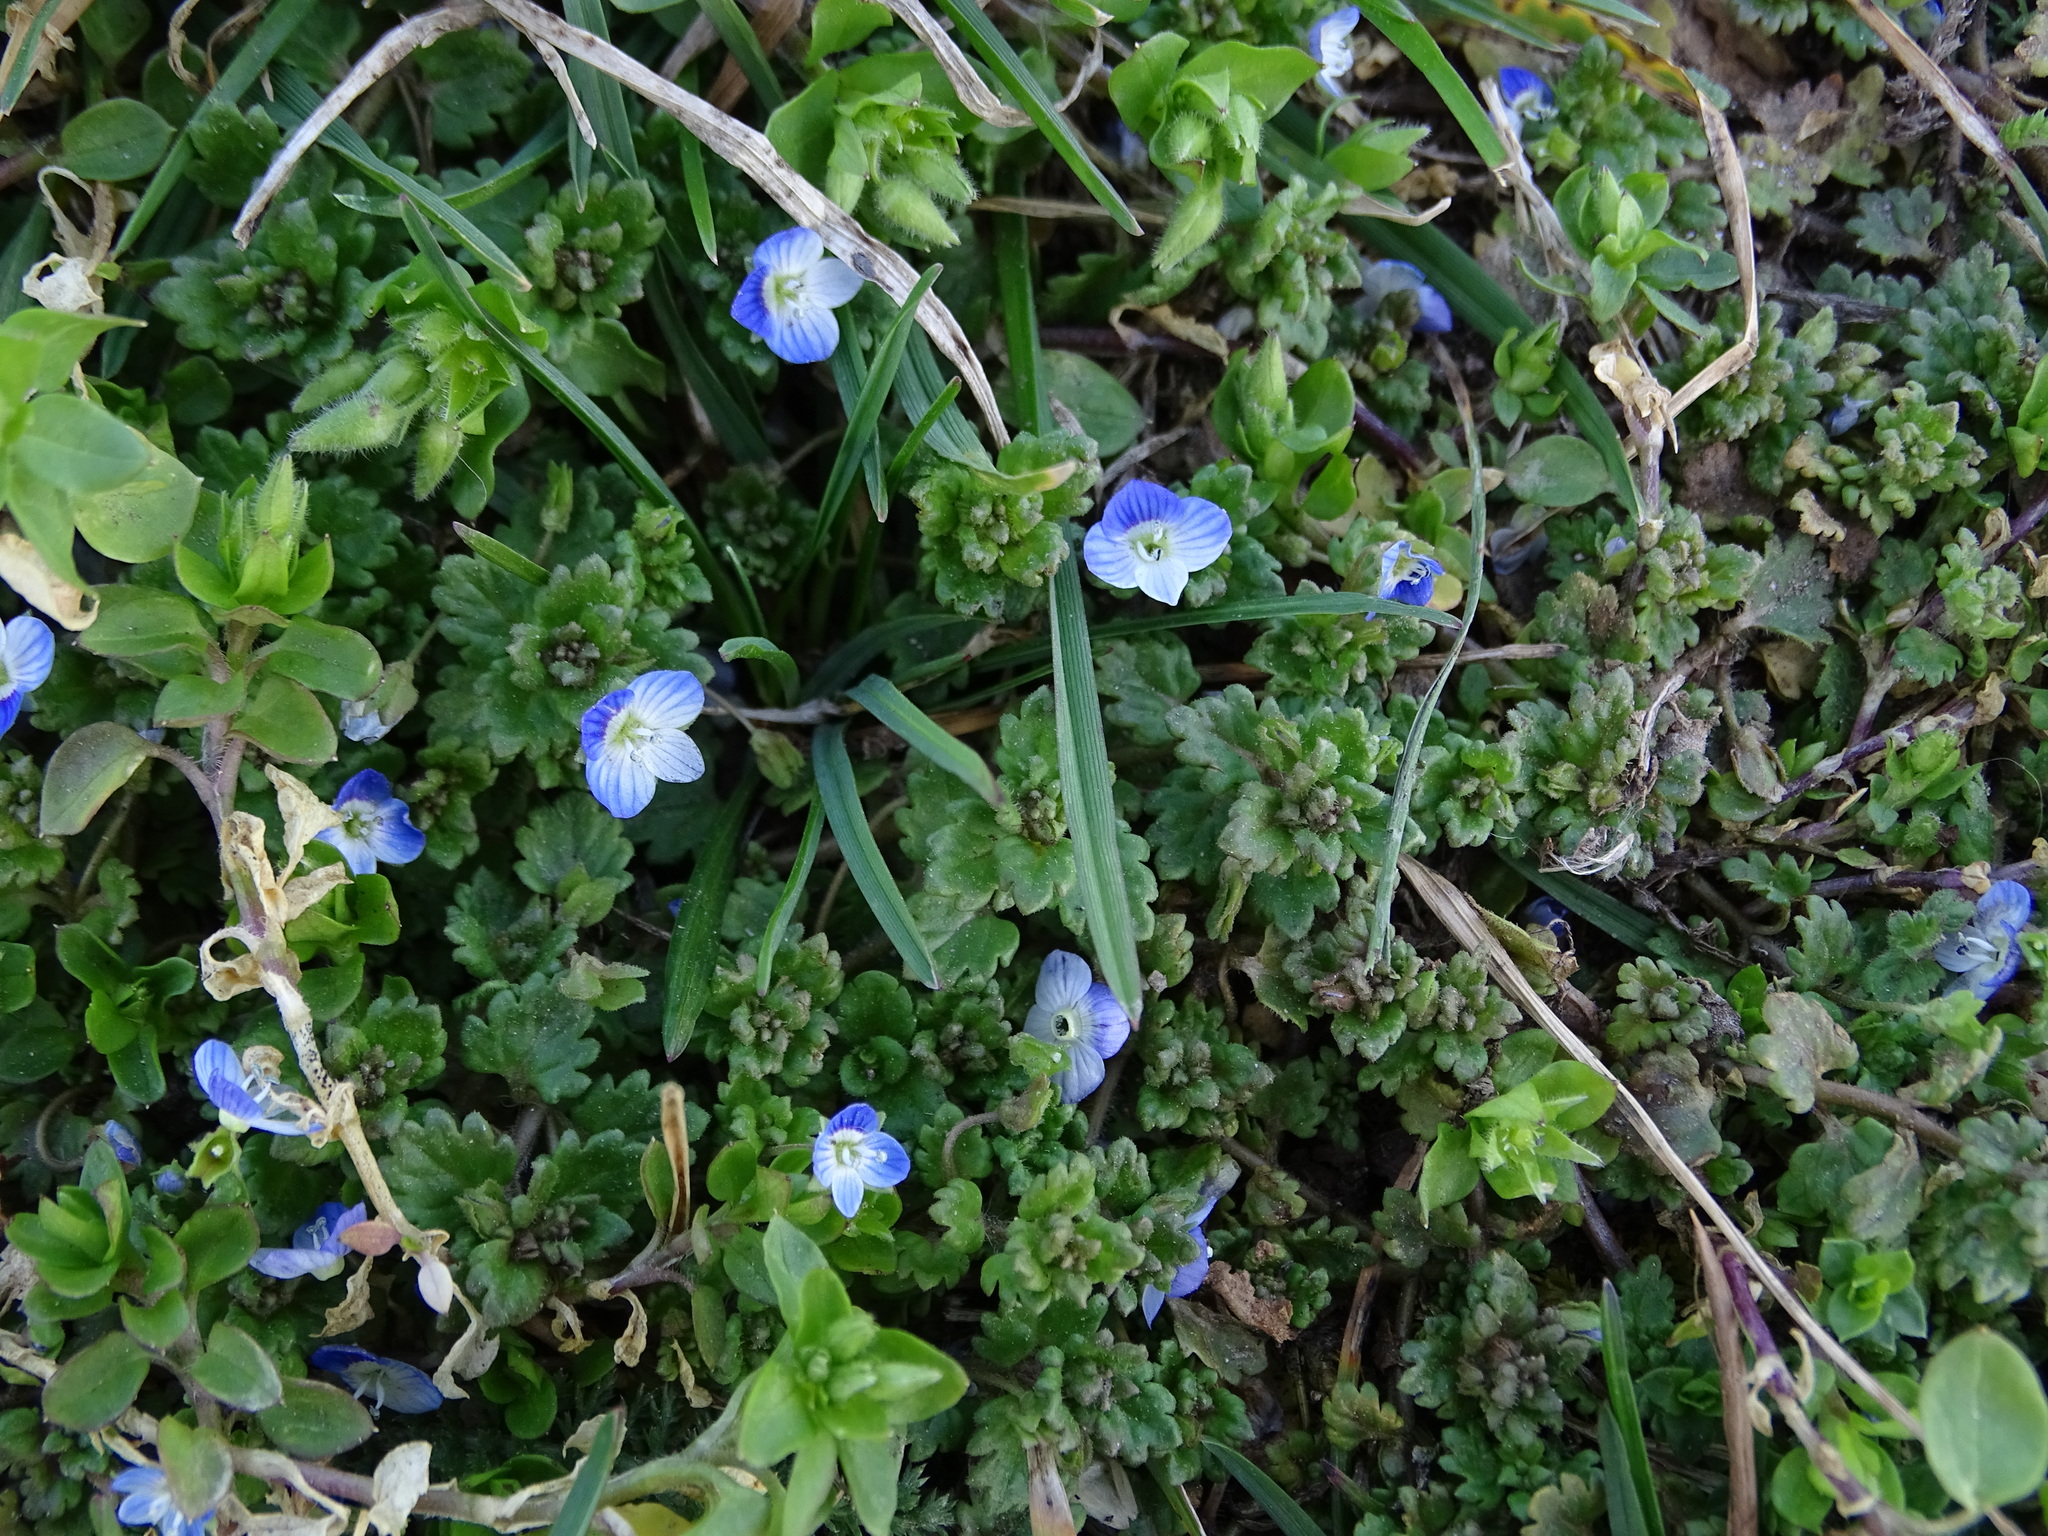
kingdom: Plantae
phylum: Tracheophyta
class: Magnoliopsida
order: Lamiales
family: Plantaginaceae
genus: Veronica
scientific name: Veronica polita
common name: Grey field-speedwell
